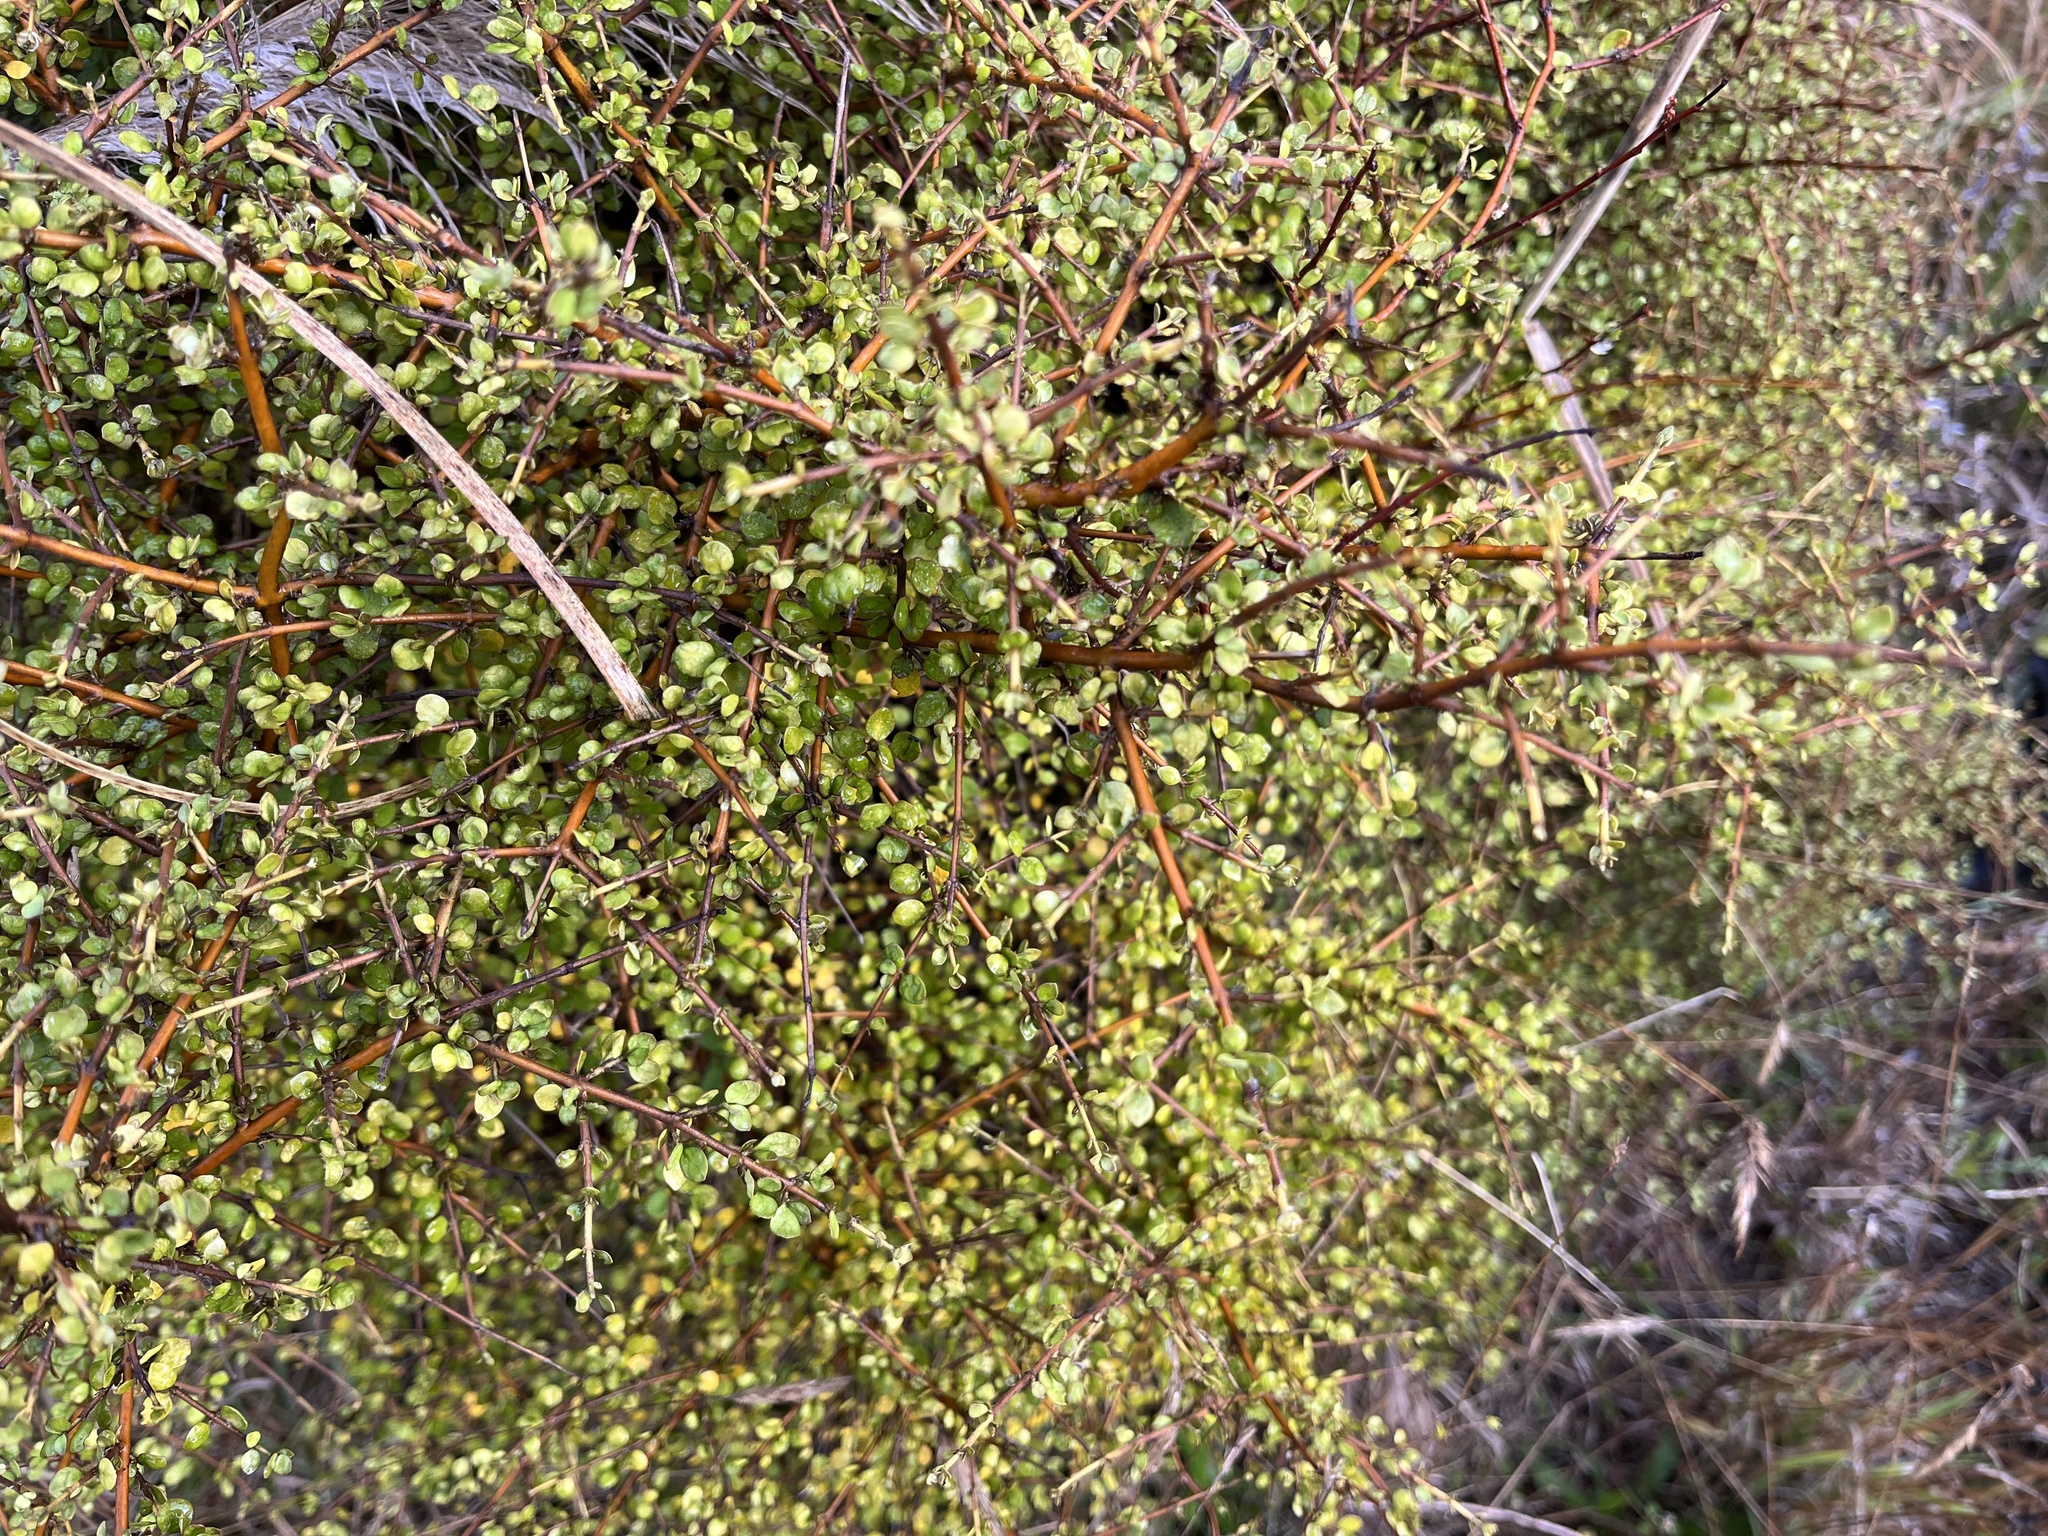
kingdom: Plantae
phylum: Tracheophyta
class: Magnoliopsida
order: Gentianales
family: Rubiaceae
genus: Coprosma
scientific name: Coprosma crassifolia
